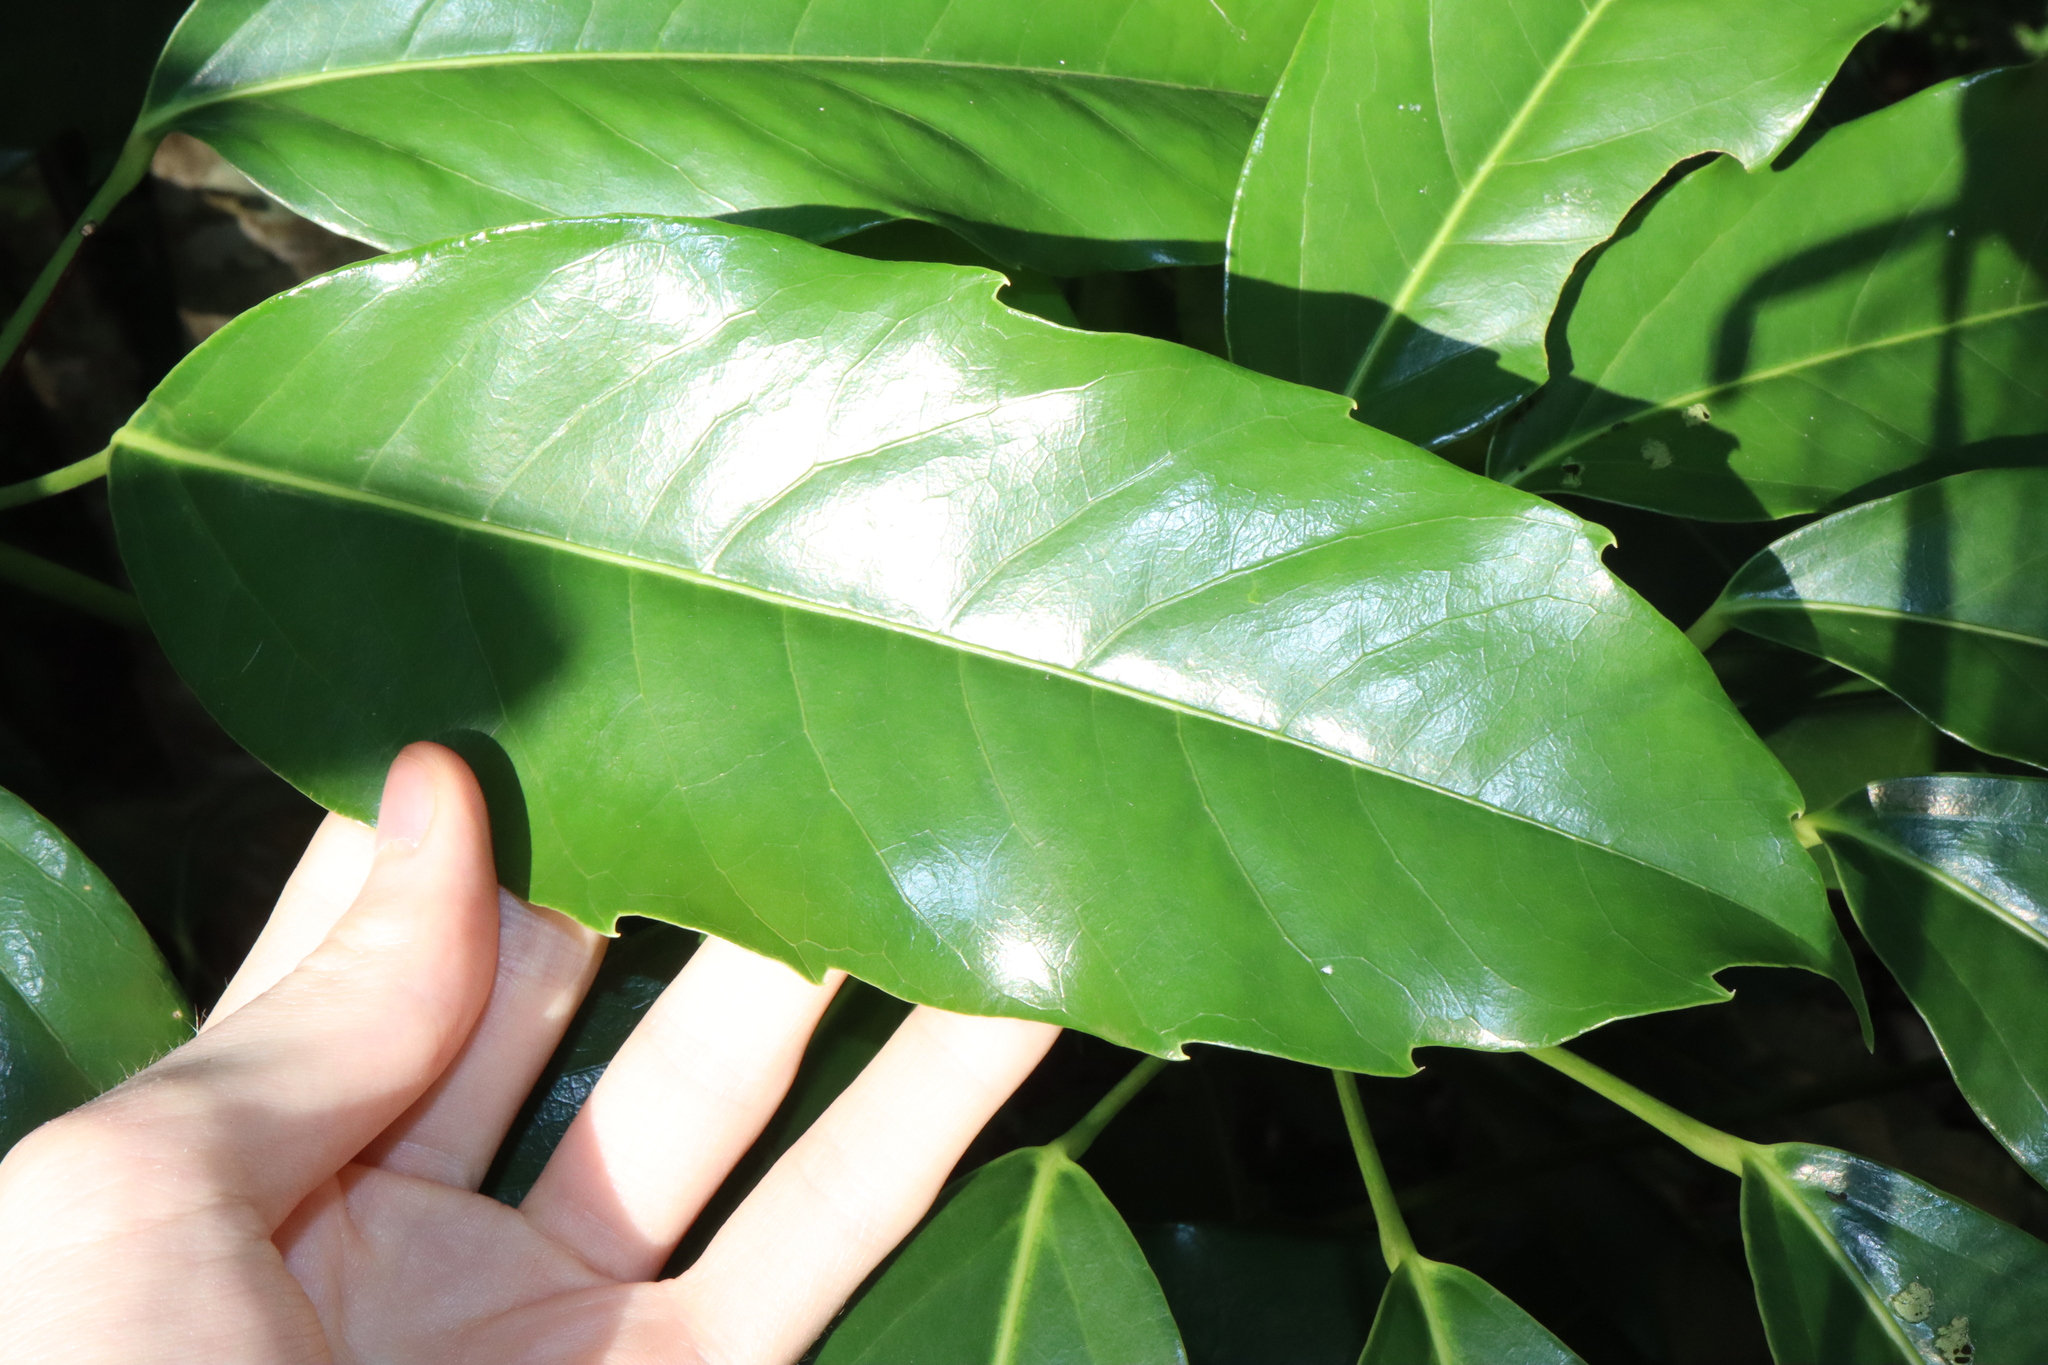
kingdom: Plantae
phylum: Tracheophyta
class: Magnoliopsida
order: Apiales
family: Araliaceae
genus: Heptapleurum
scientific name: Heptapleurum actinophyllum
